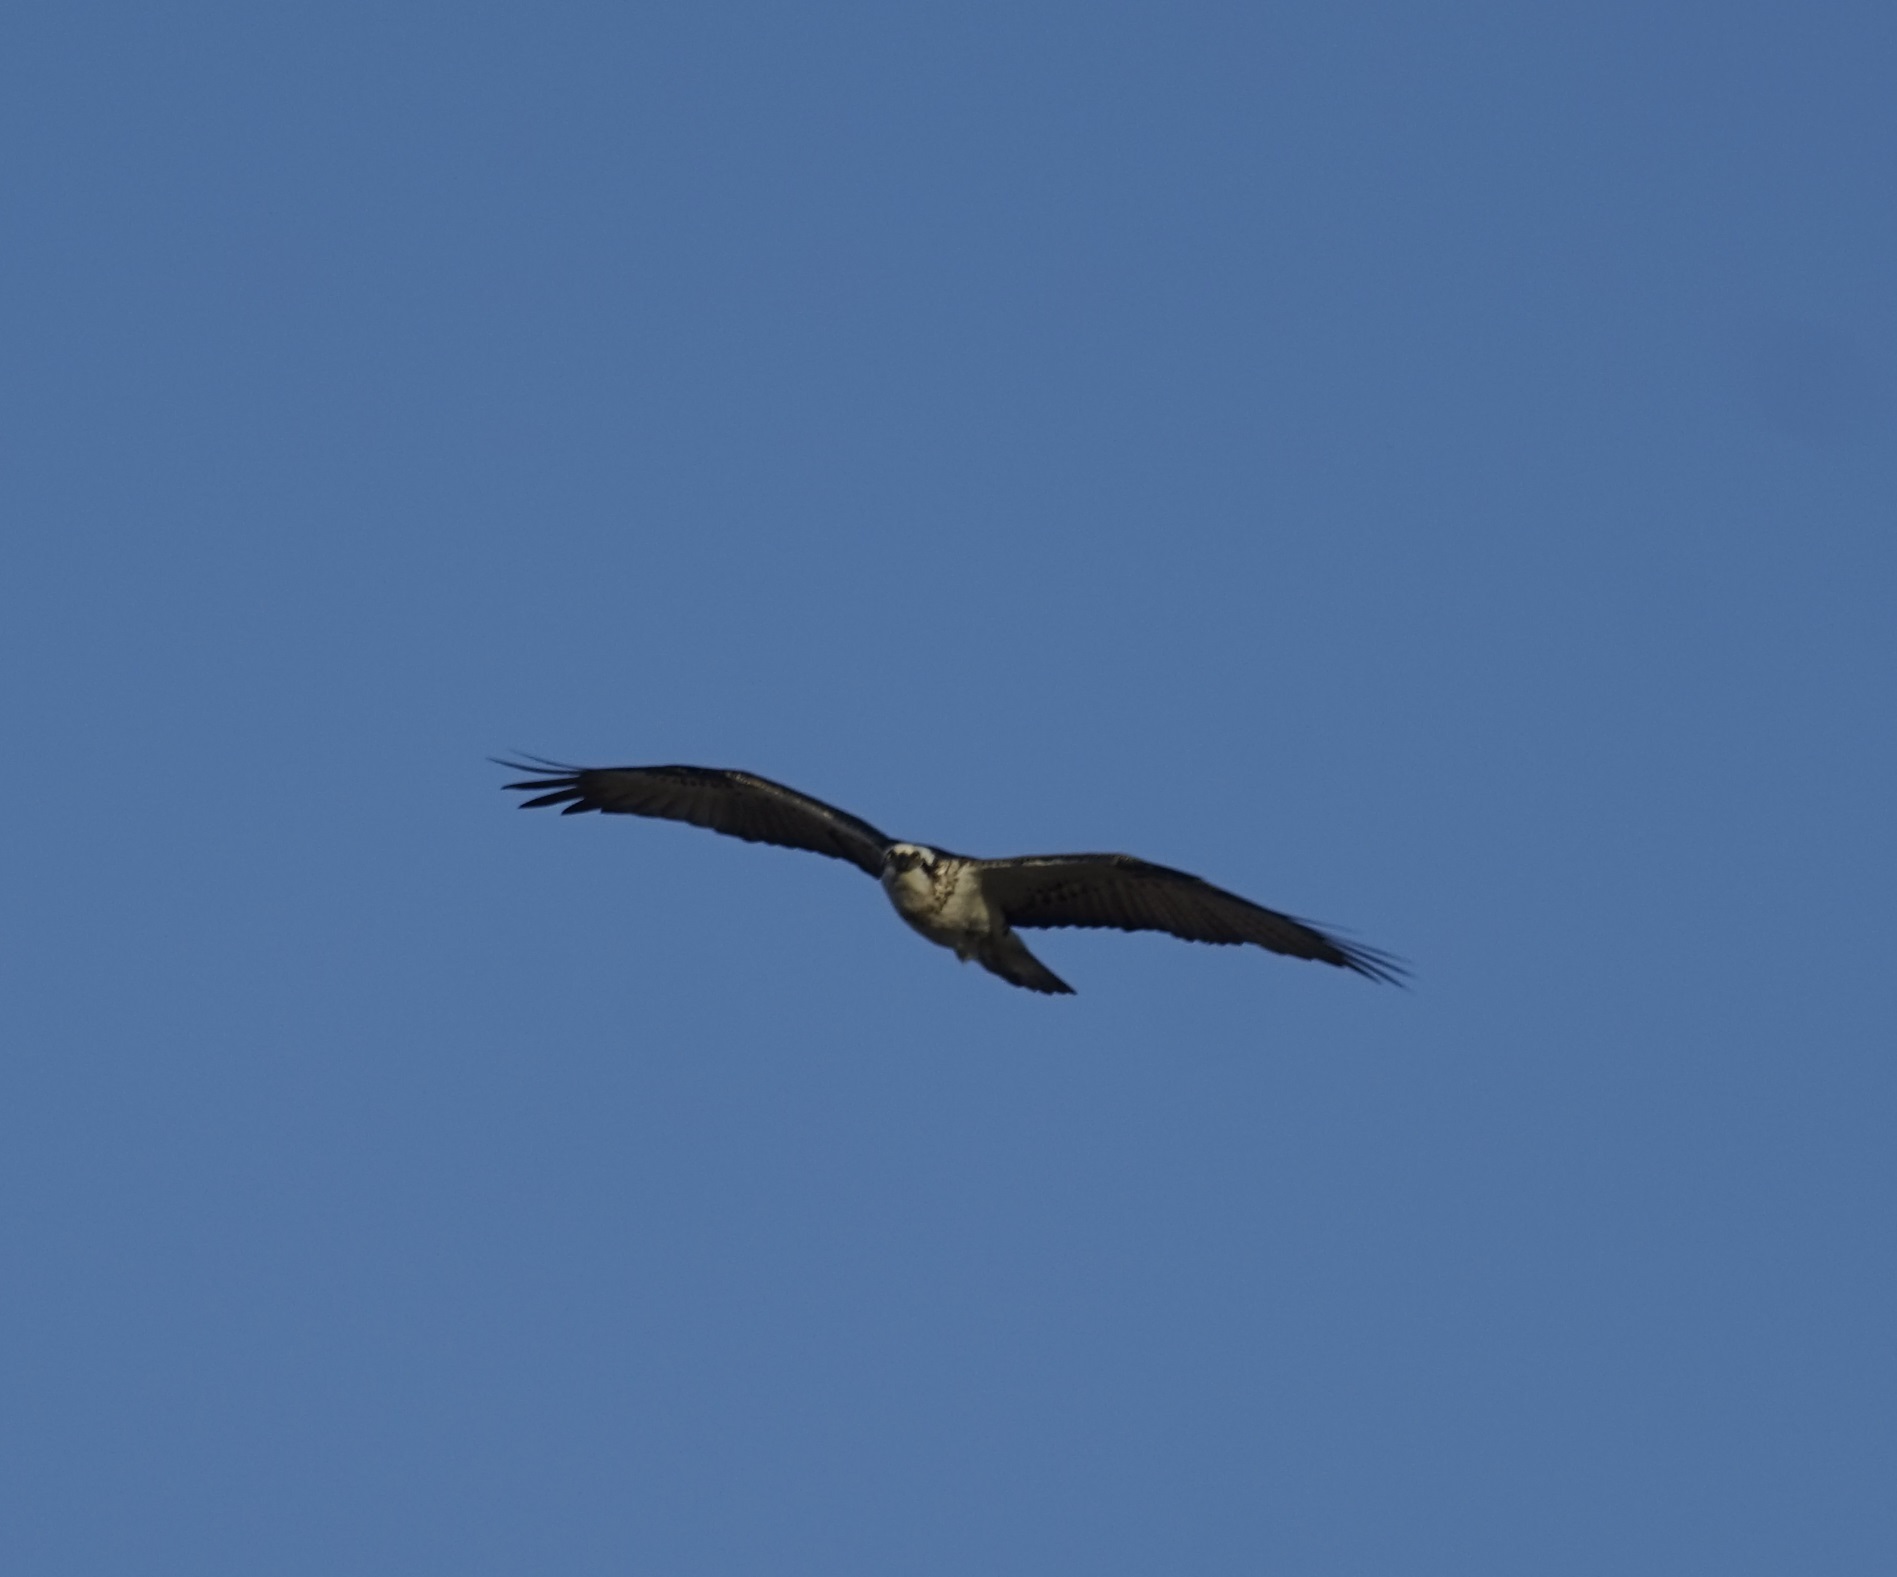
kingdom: Animalia
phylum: Chordata
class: Aves
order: Accipitriformes
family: Pandionidae
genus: Pandion
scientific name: Pandion cristatus
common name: Eastern osprey
